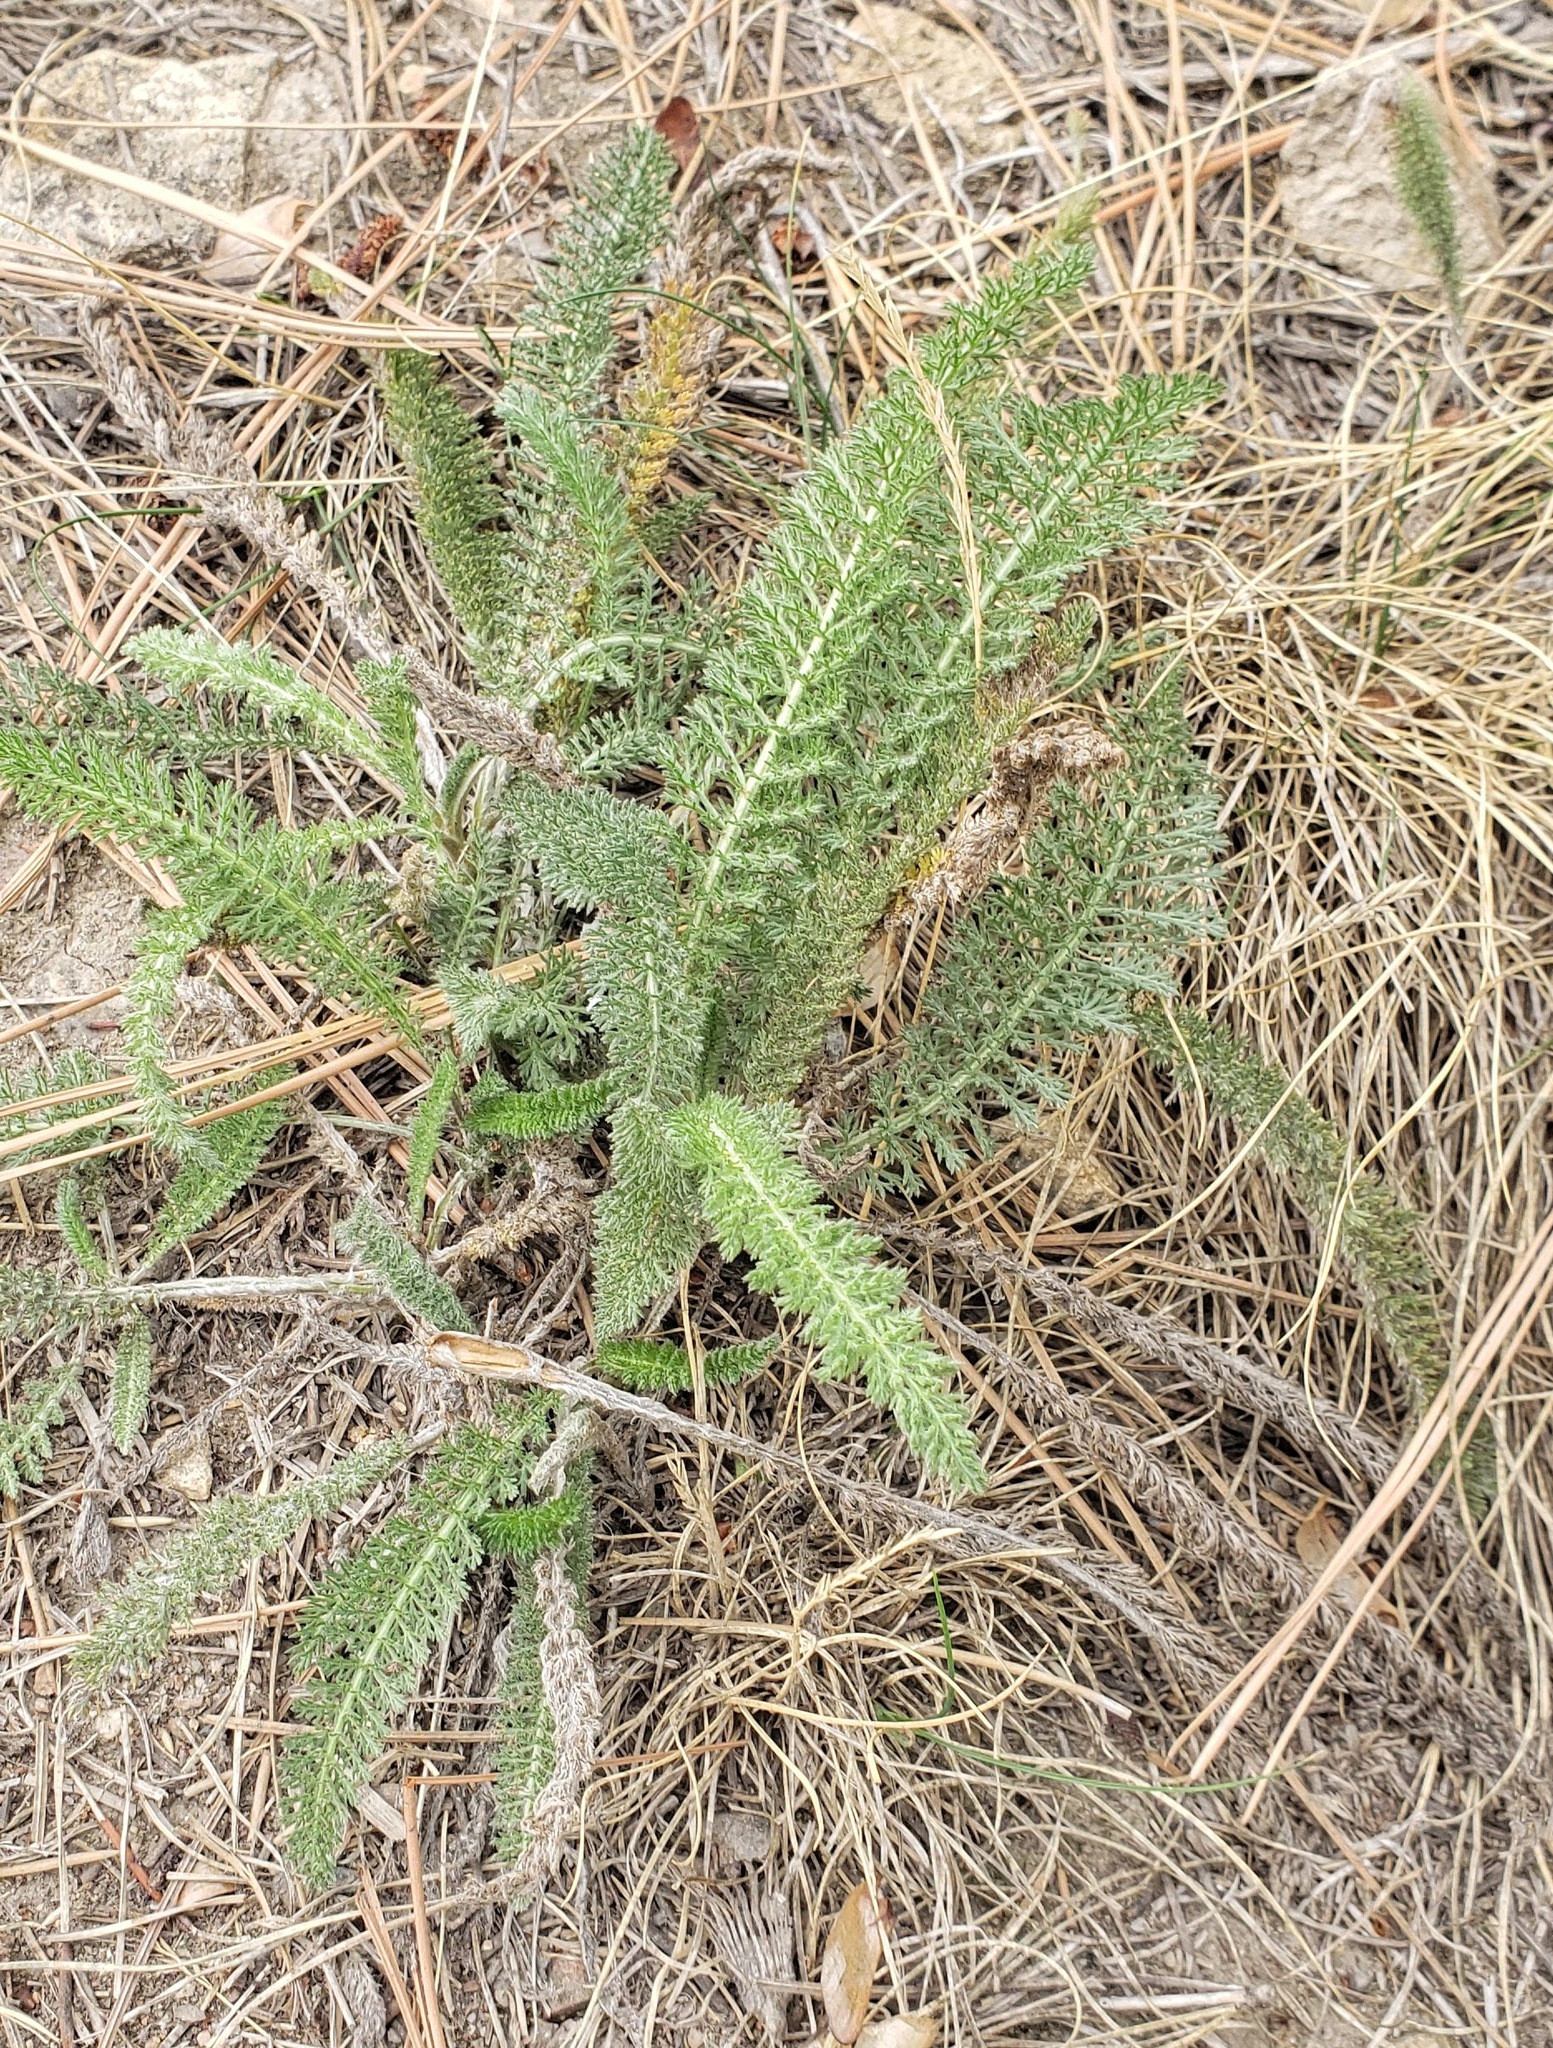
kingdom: Plantae
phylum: Tracheophyta
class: Magnoliopsida
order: Asterales
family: Asteraceae
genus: Achillea
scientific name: Achillea millefolium
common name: Yarrow
